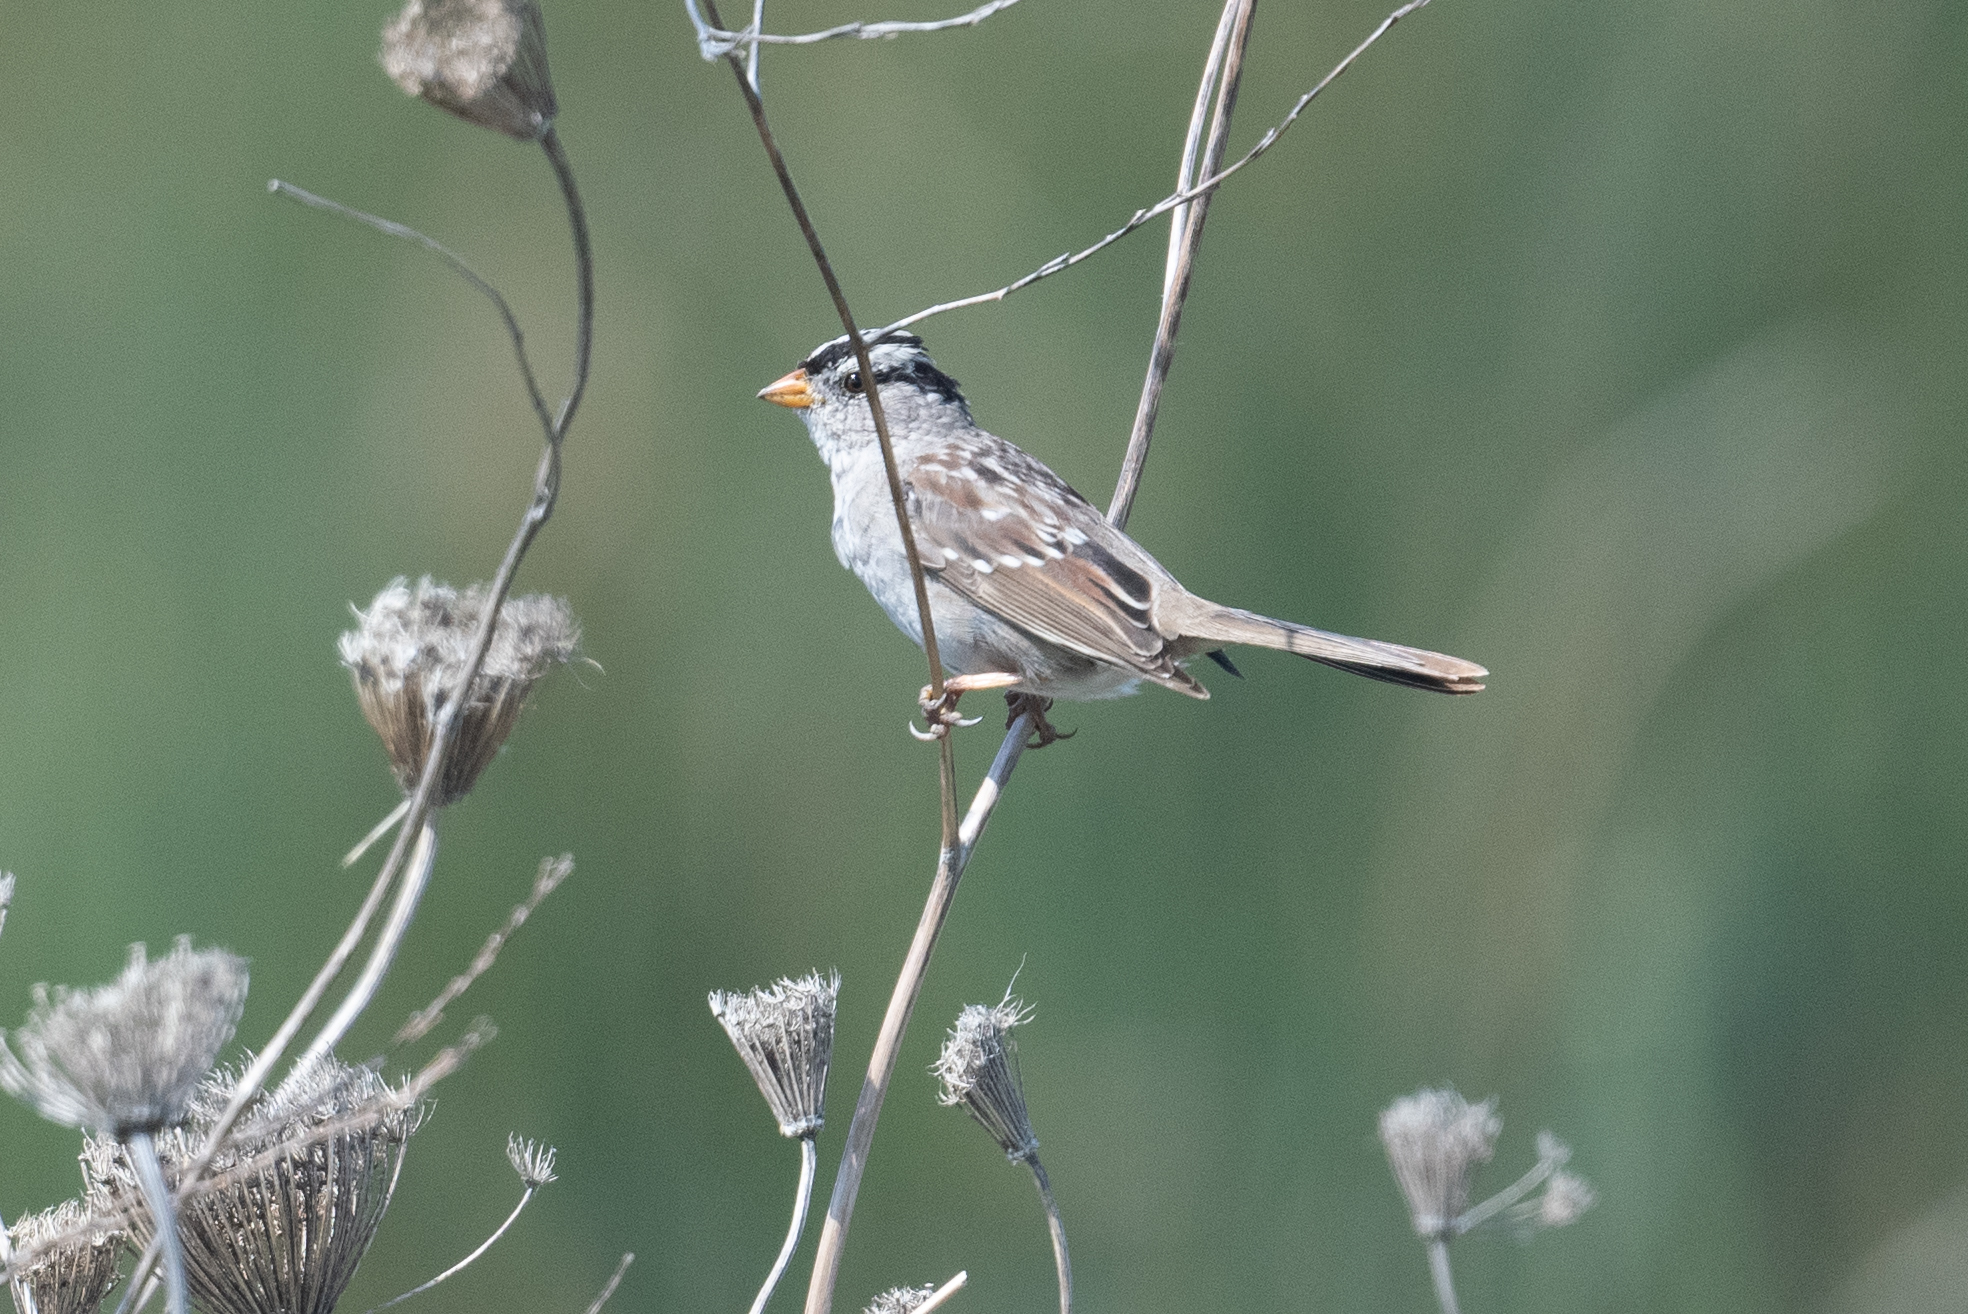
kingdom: Animalia
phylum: Chordata
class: Aves
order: Passeriformes
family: Passerellidae
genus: Zonotrichia
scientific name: Zonotrichia leucophrys
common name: White-crowned sparrow
